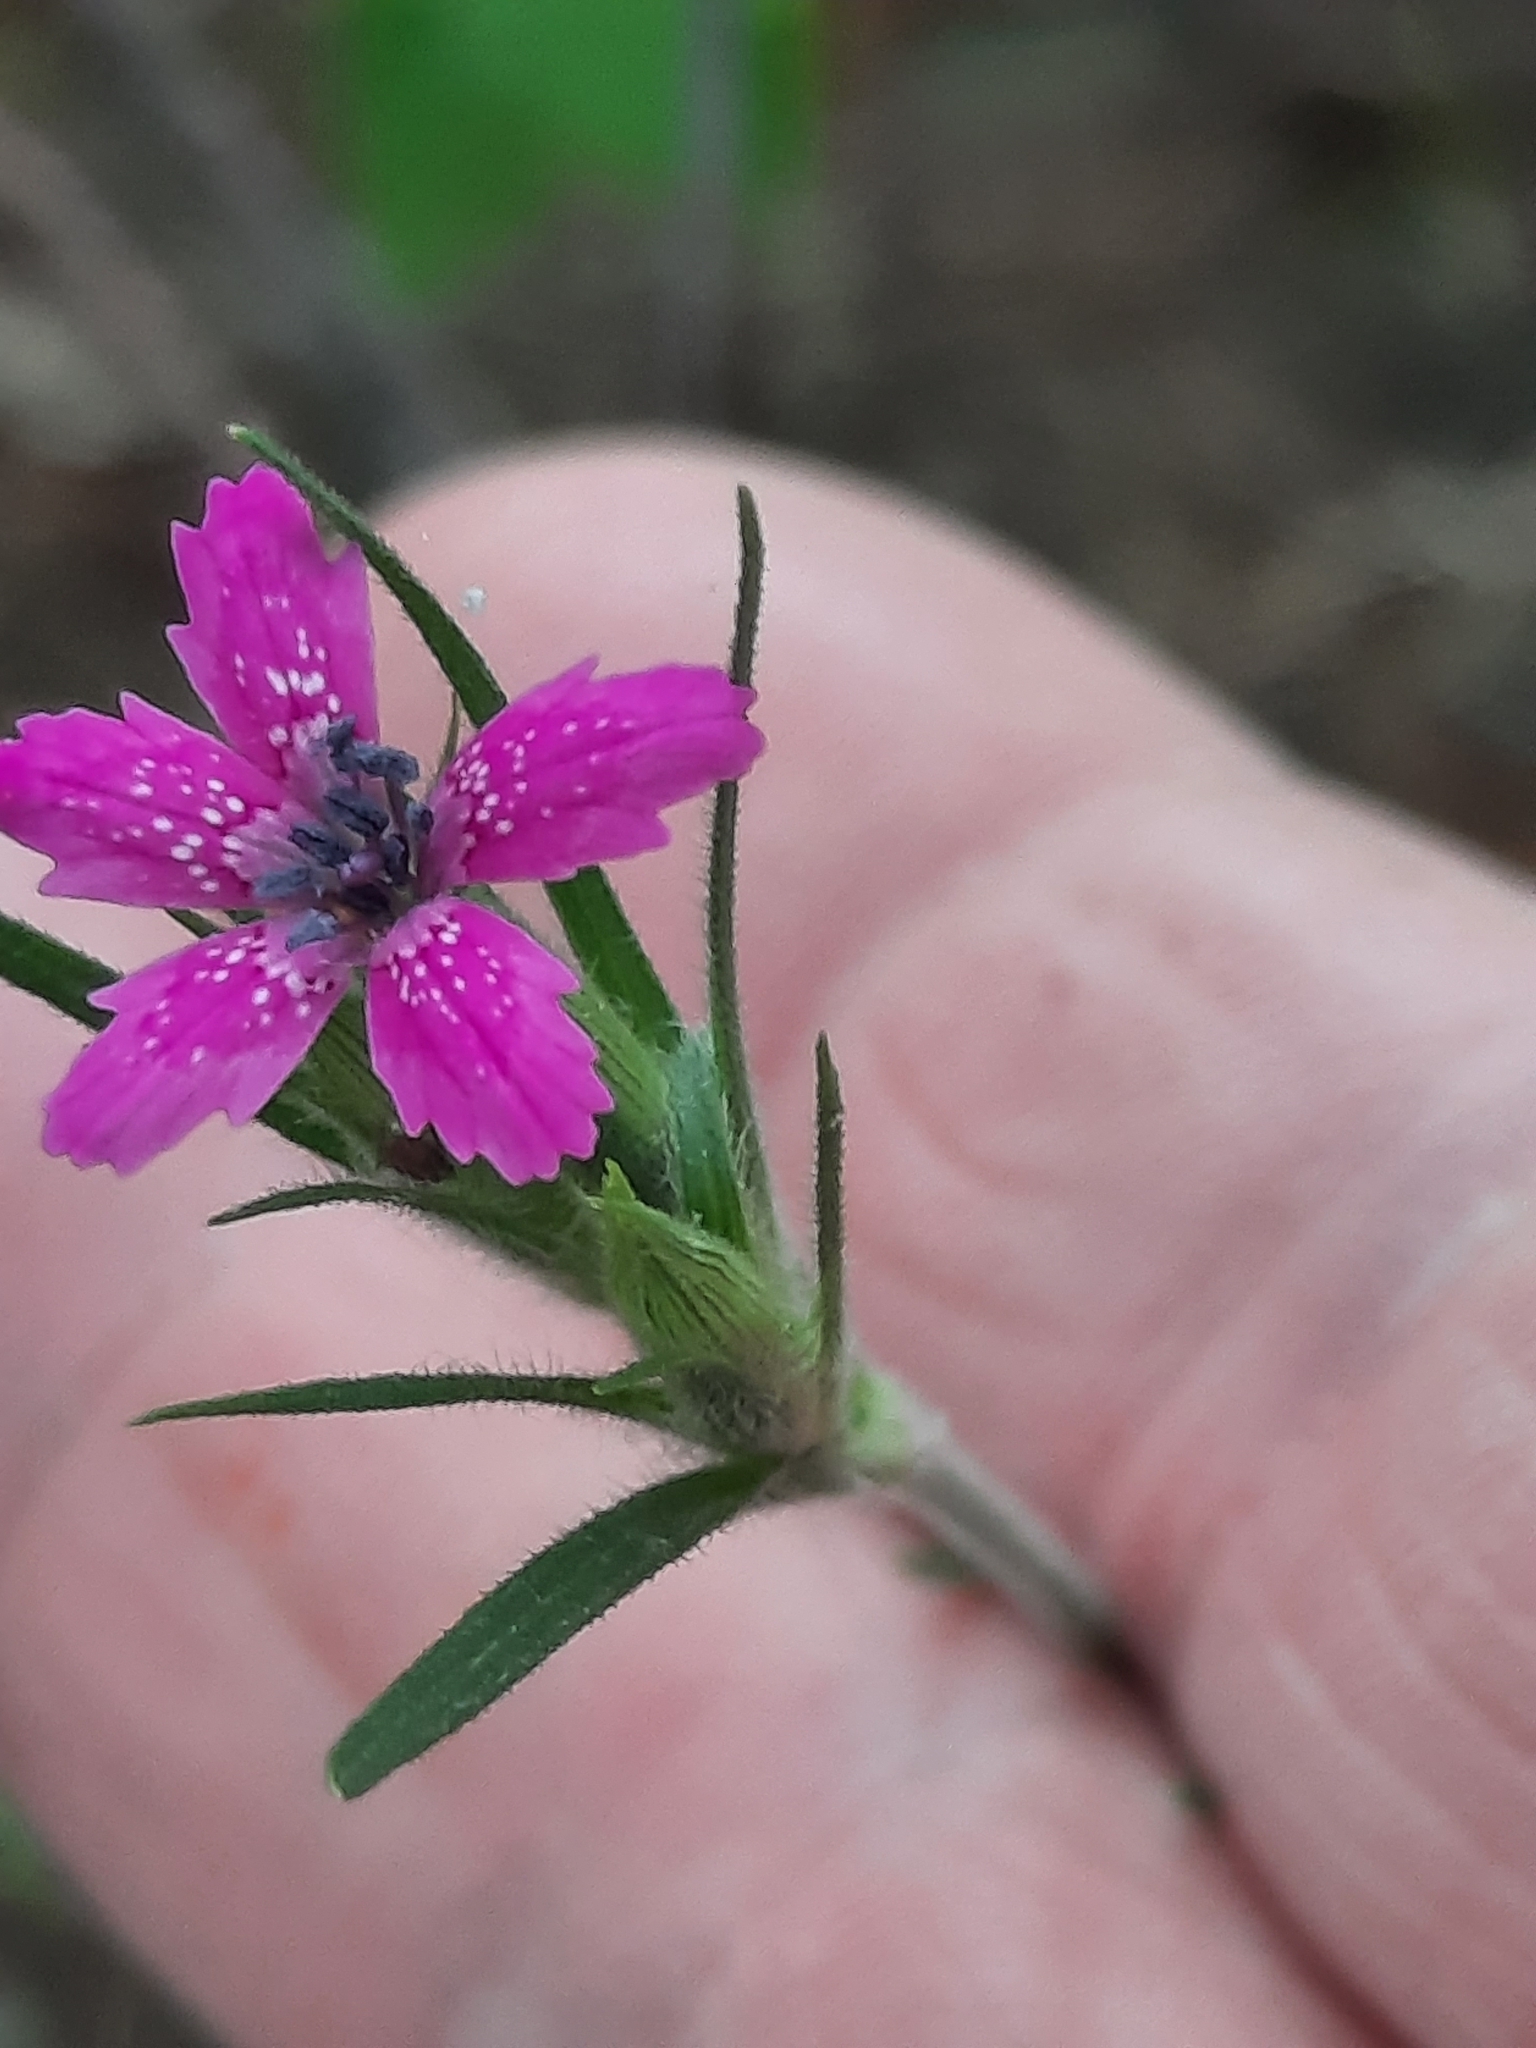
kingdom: Plantae
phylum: Tracheophyta
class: Magnoliopsida
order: Caryophyllales
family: Caryophyllaceae
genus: Dianthus
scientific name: Dianthus armeria
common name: Deptford pink
